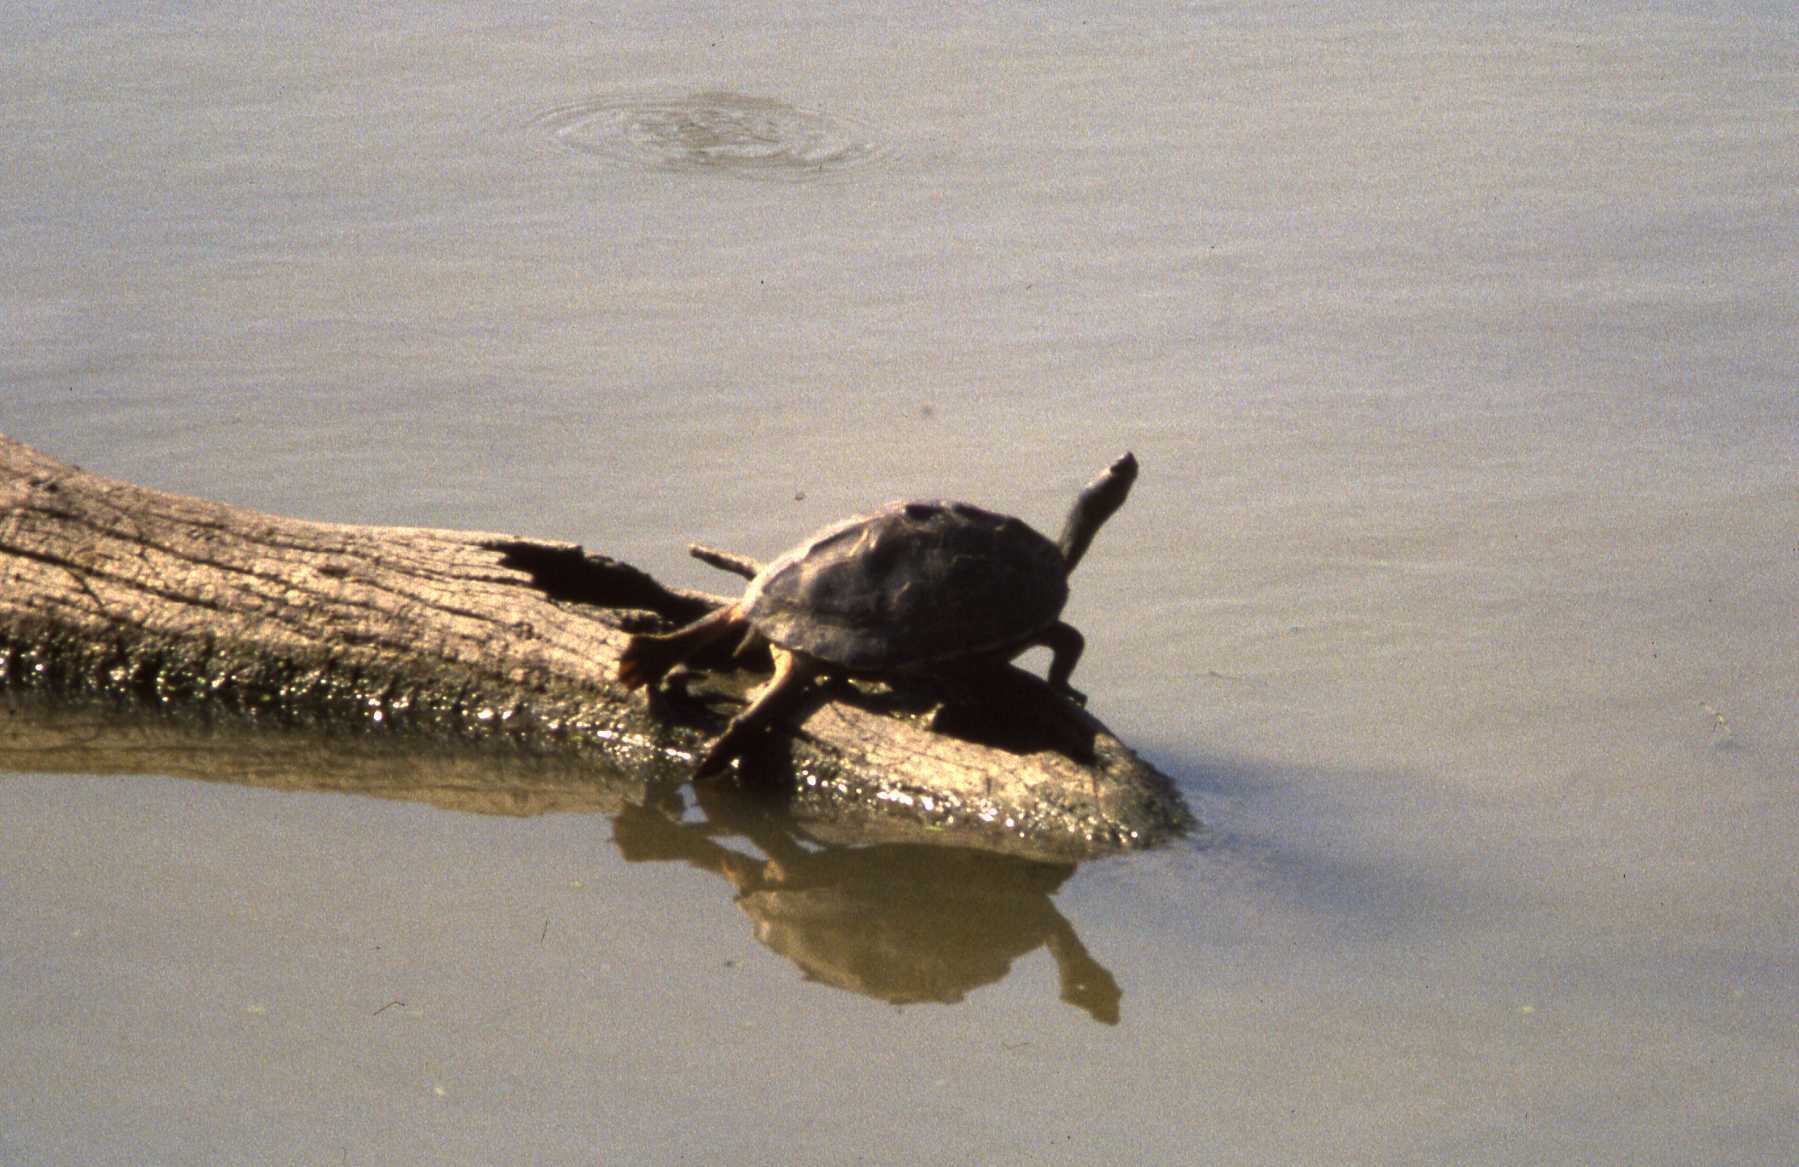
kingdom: Animalia
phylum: Chordata
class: Testudines
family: Geoemydidae
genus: Pangshura
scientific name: Pangshura tecta
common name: Indian roofed turtle
